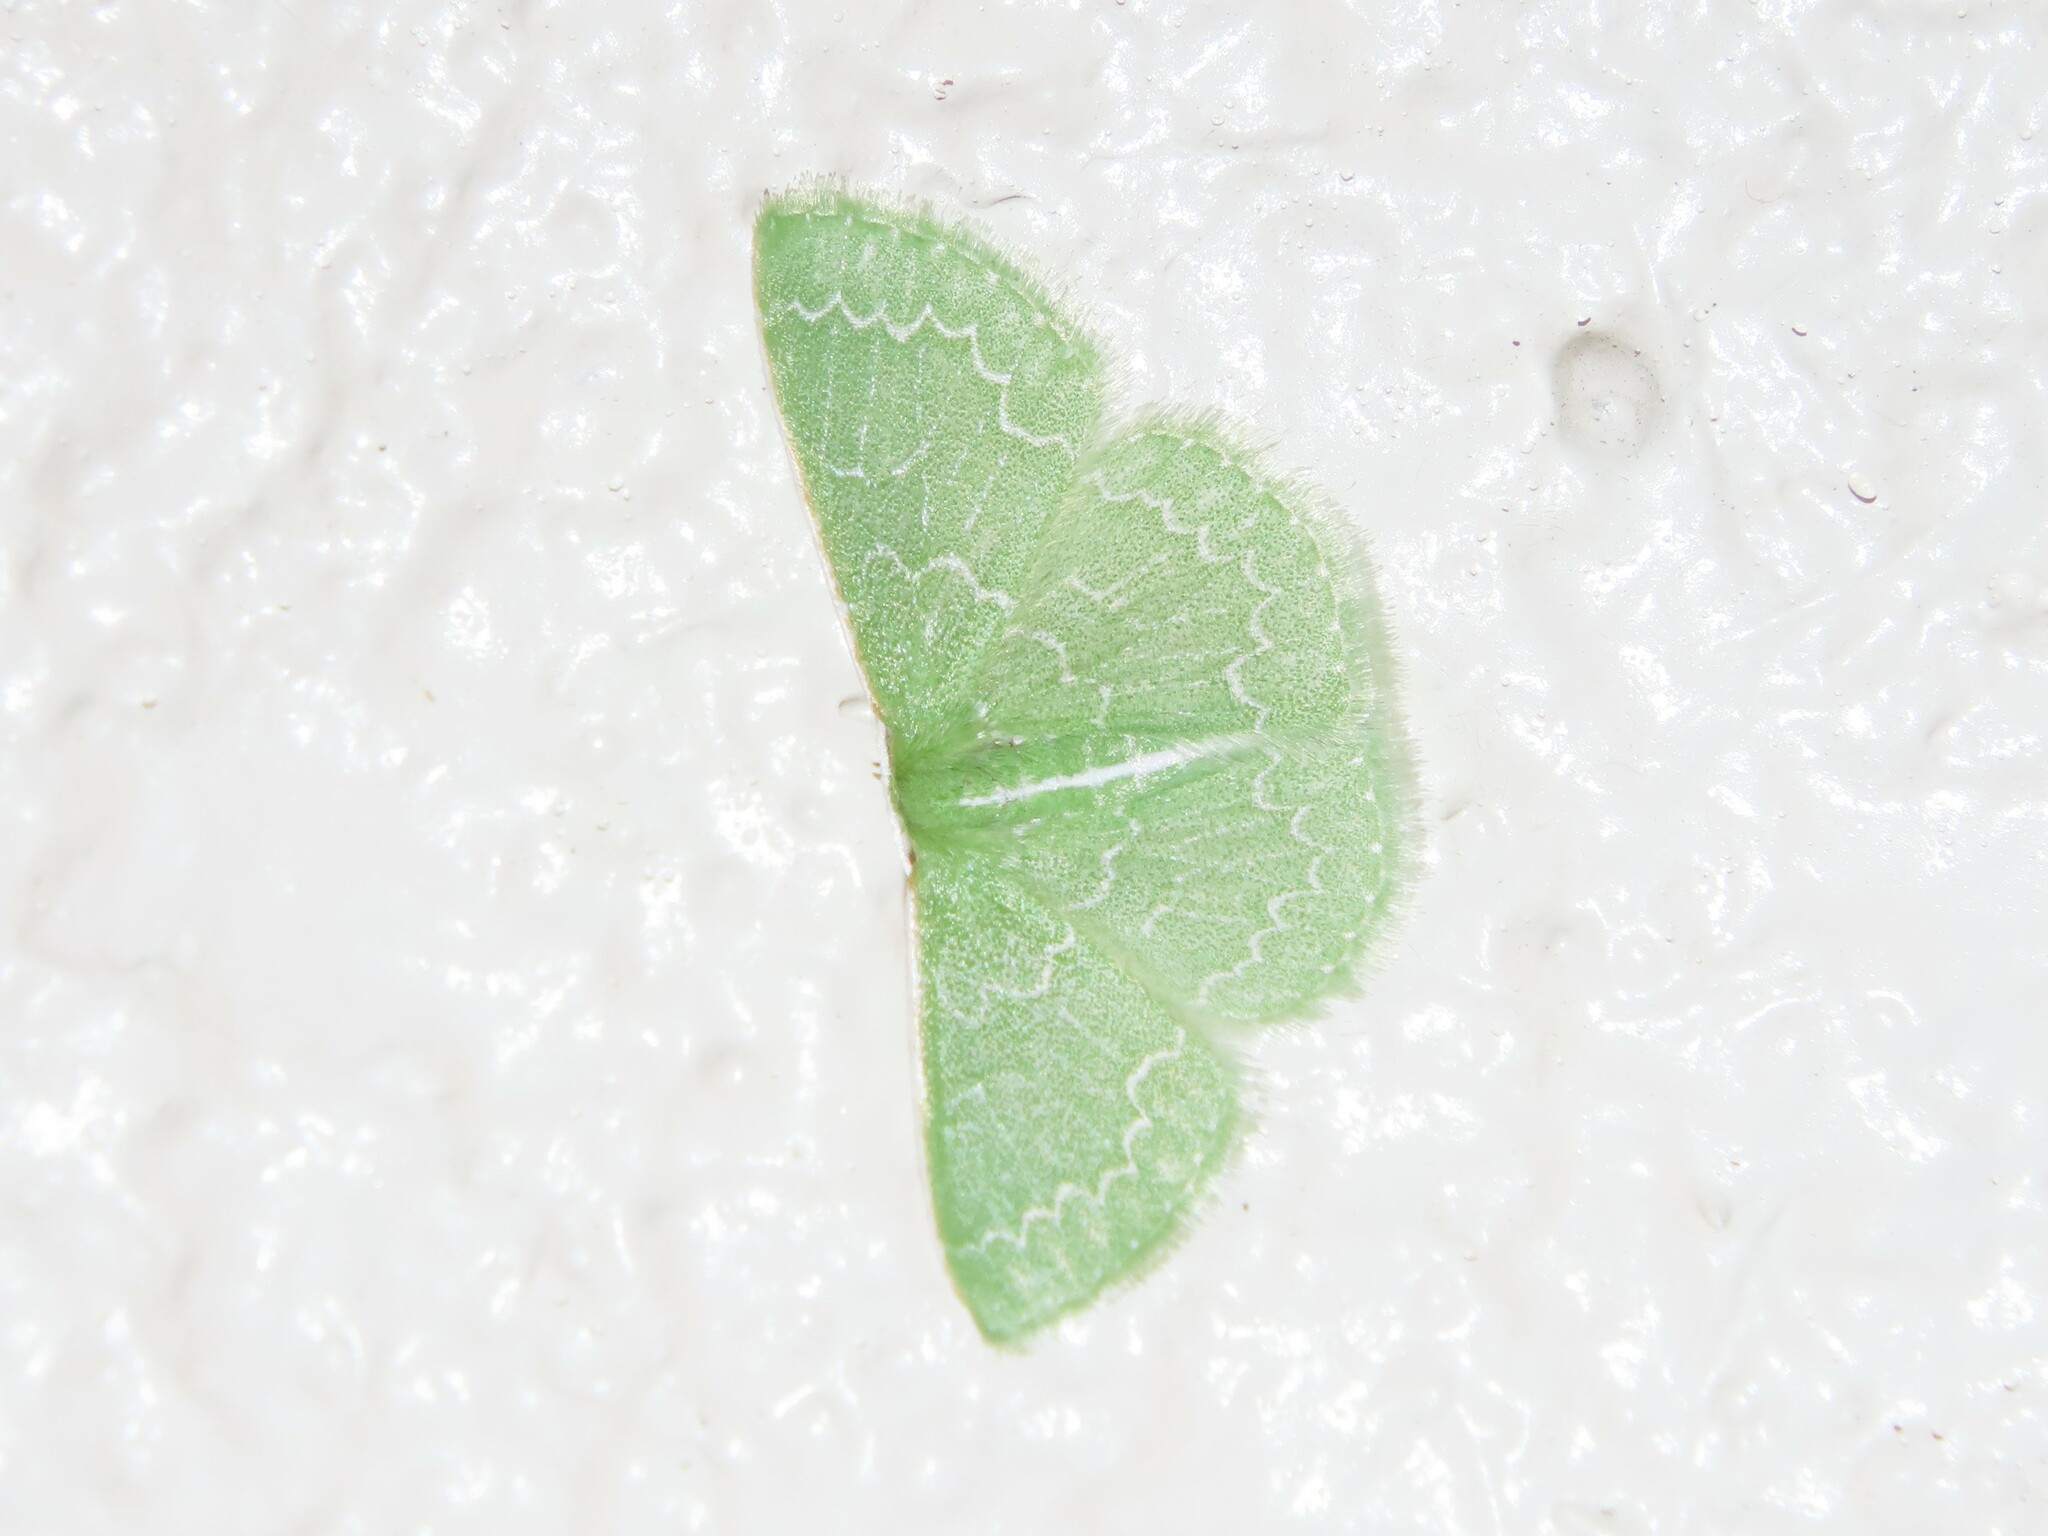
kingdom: Animalia
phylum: Arthropoda
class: Insecta
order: Lepidoptera
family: Geometridae
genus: Synchlora
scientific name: Synchlora frondaria
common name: Southern emerald
